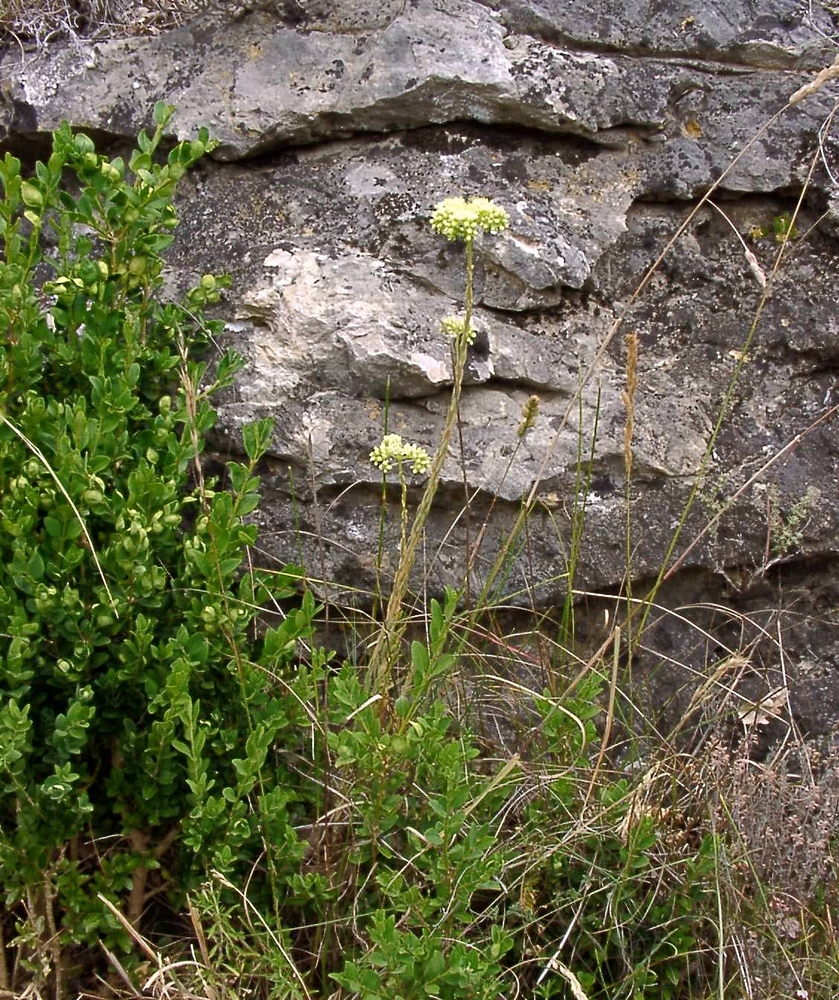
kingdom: Plantae
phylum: Tracheophyta
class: Magnoliopsida
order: Saxifragales
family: Crassulaceae
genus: Petrosedum
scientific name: Petrosedum sediforme
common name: Pale stonecrop
